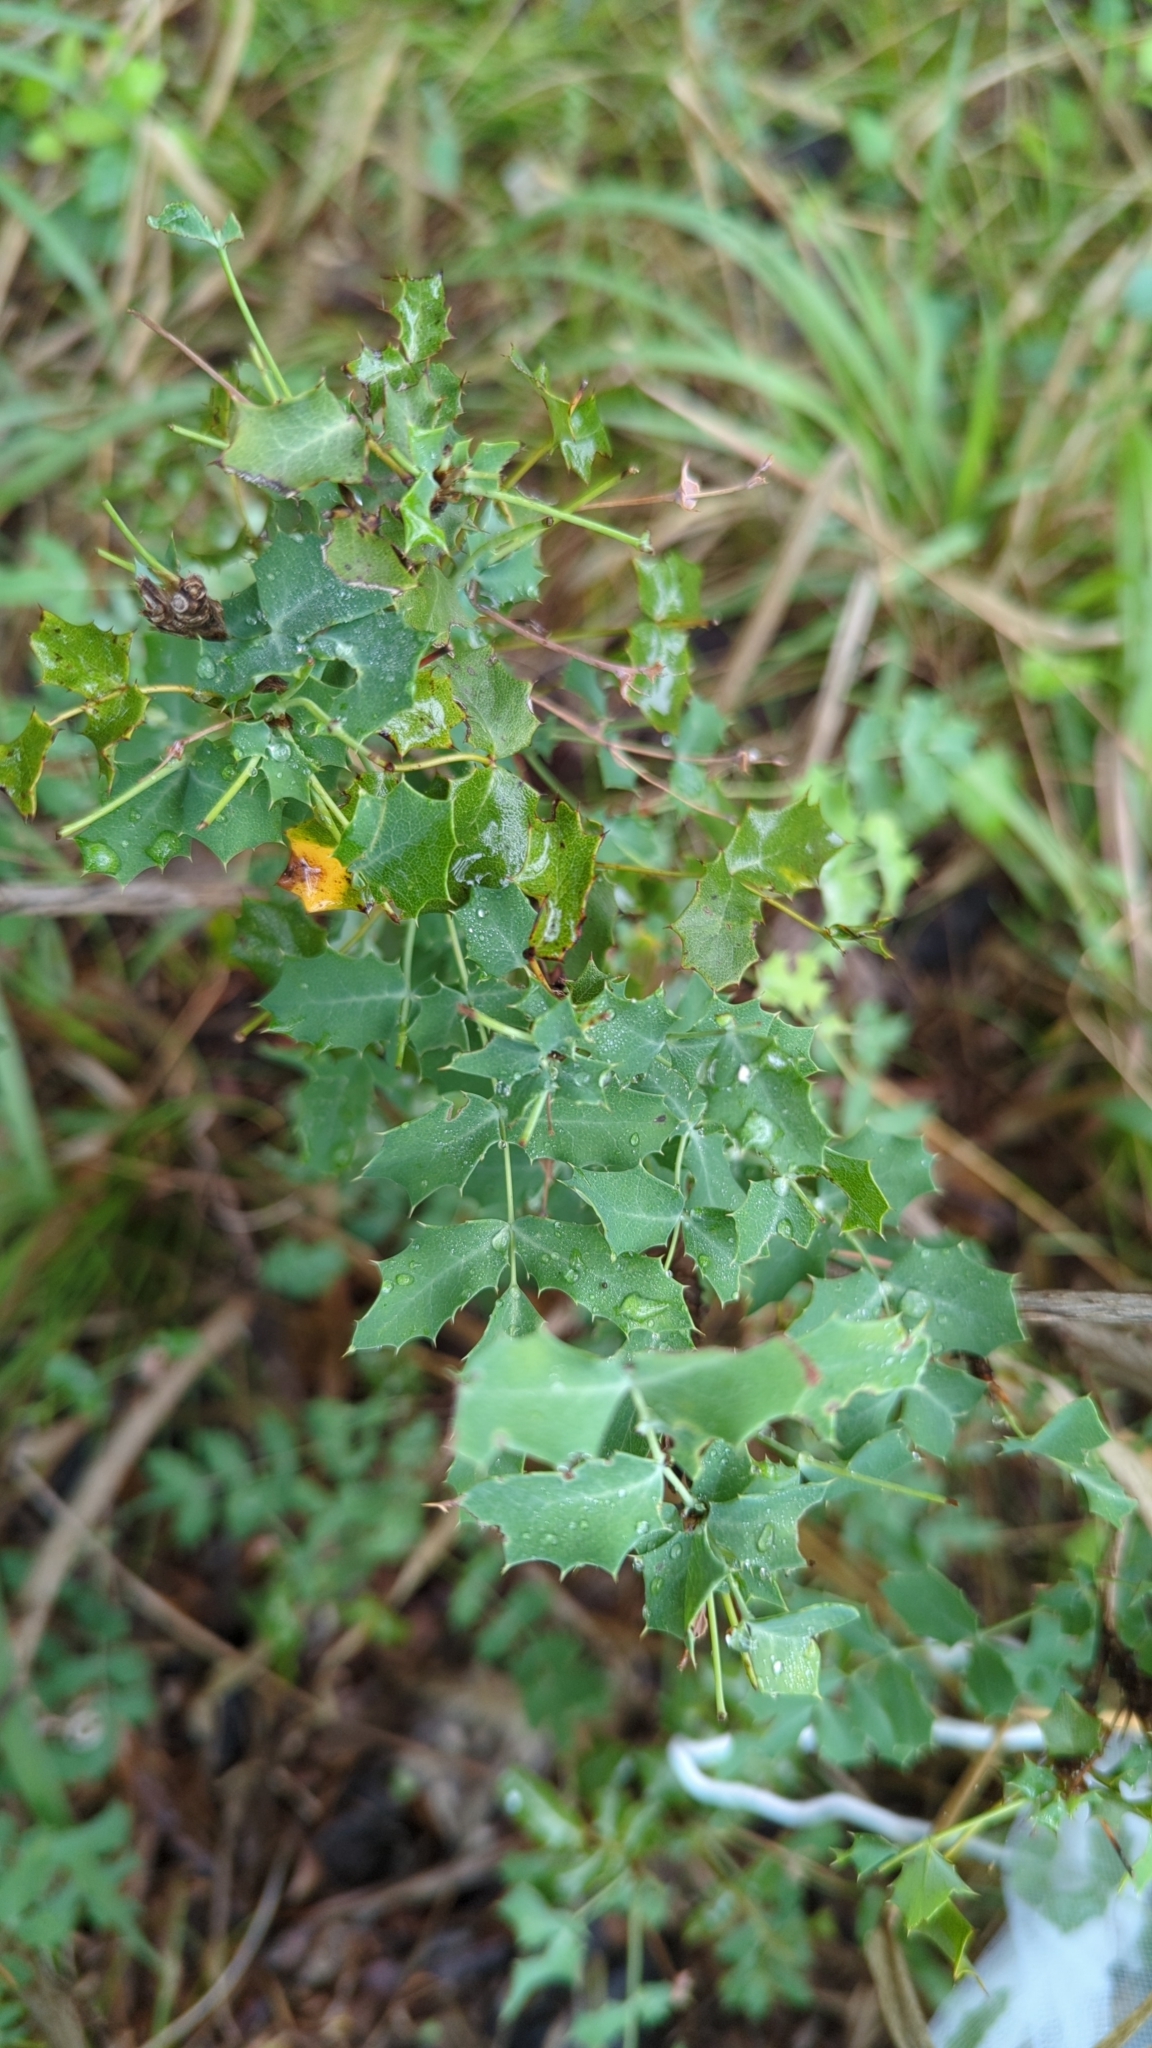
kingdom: Plantae
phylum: Tracheophyta
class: Magnoliopsida
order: Ranunculales
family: Berberidaceae
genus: Berberis
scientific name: Berberis swaseyi
